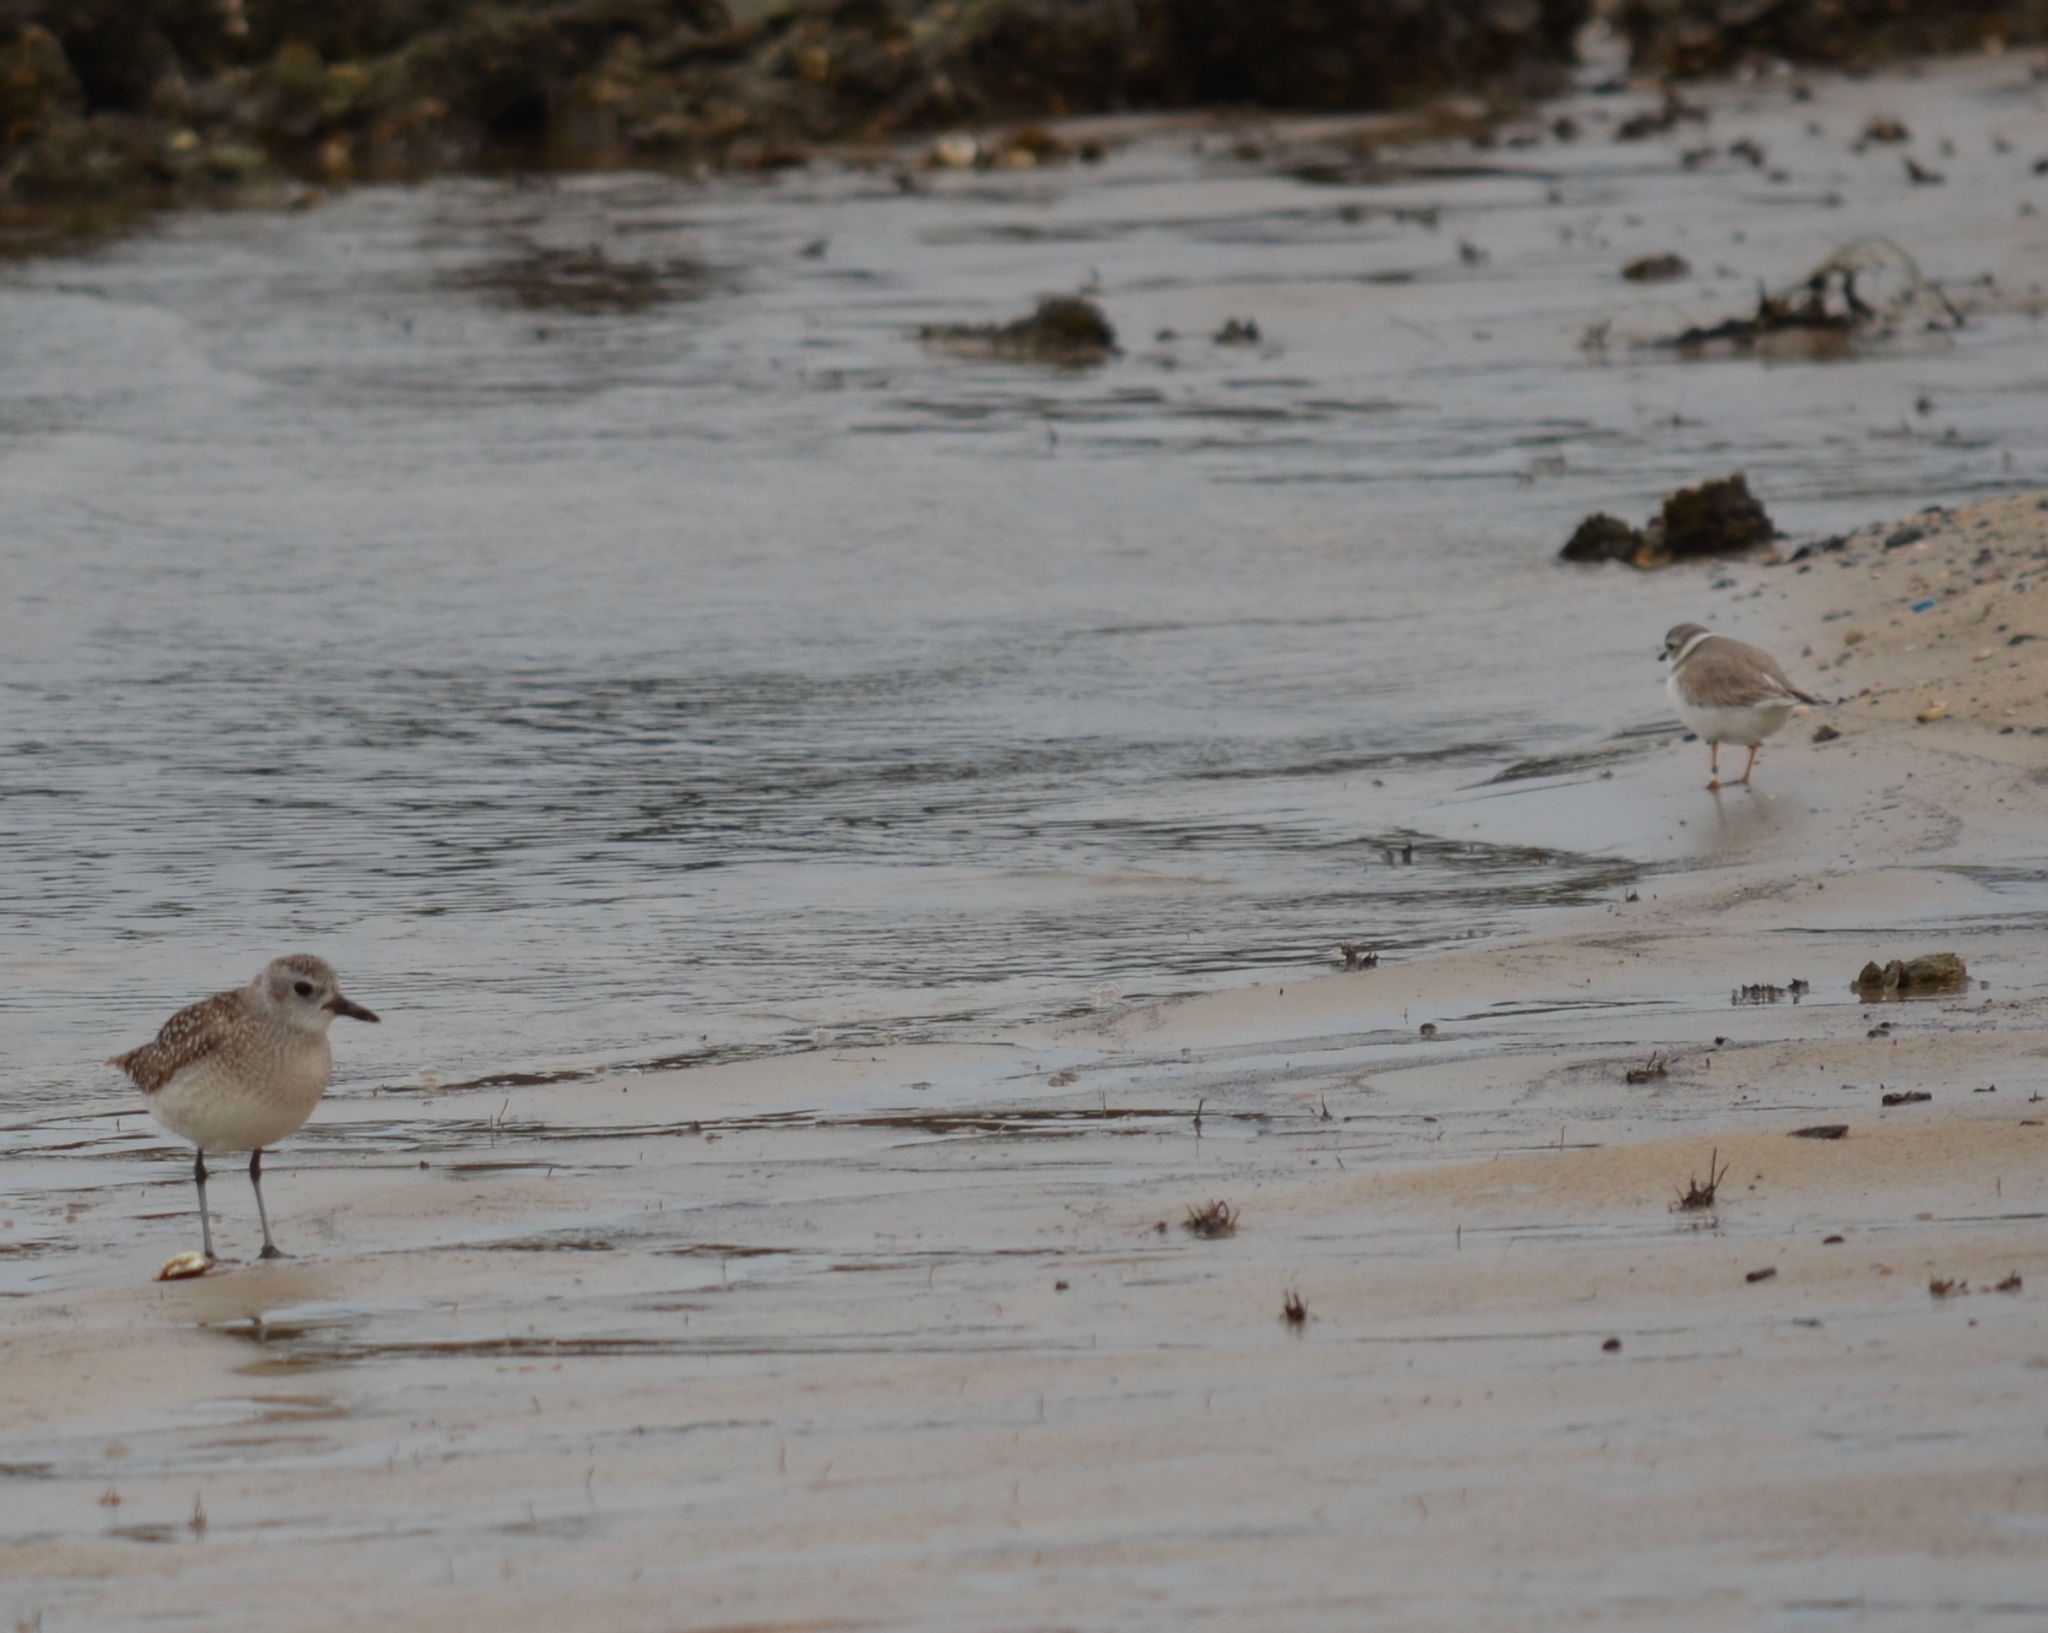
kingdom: Animalia
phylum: Chordata
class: Aves
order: Charadriiformes
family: Charadriidae
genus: Pluvialis
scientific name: Pluvialis squatarola
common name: Grey plover
